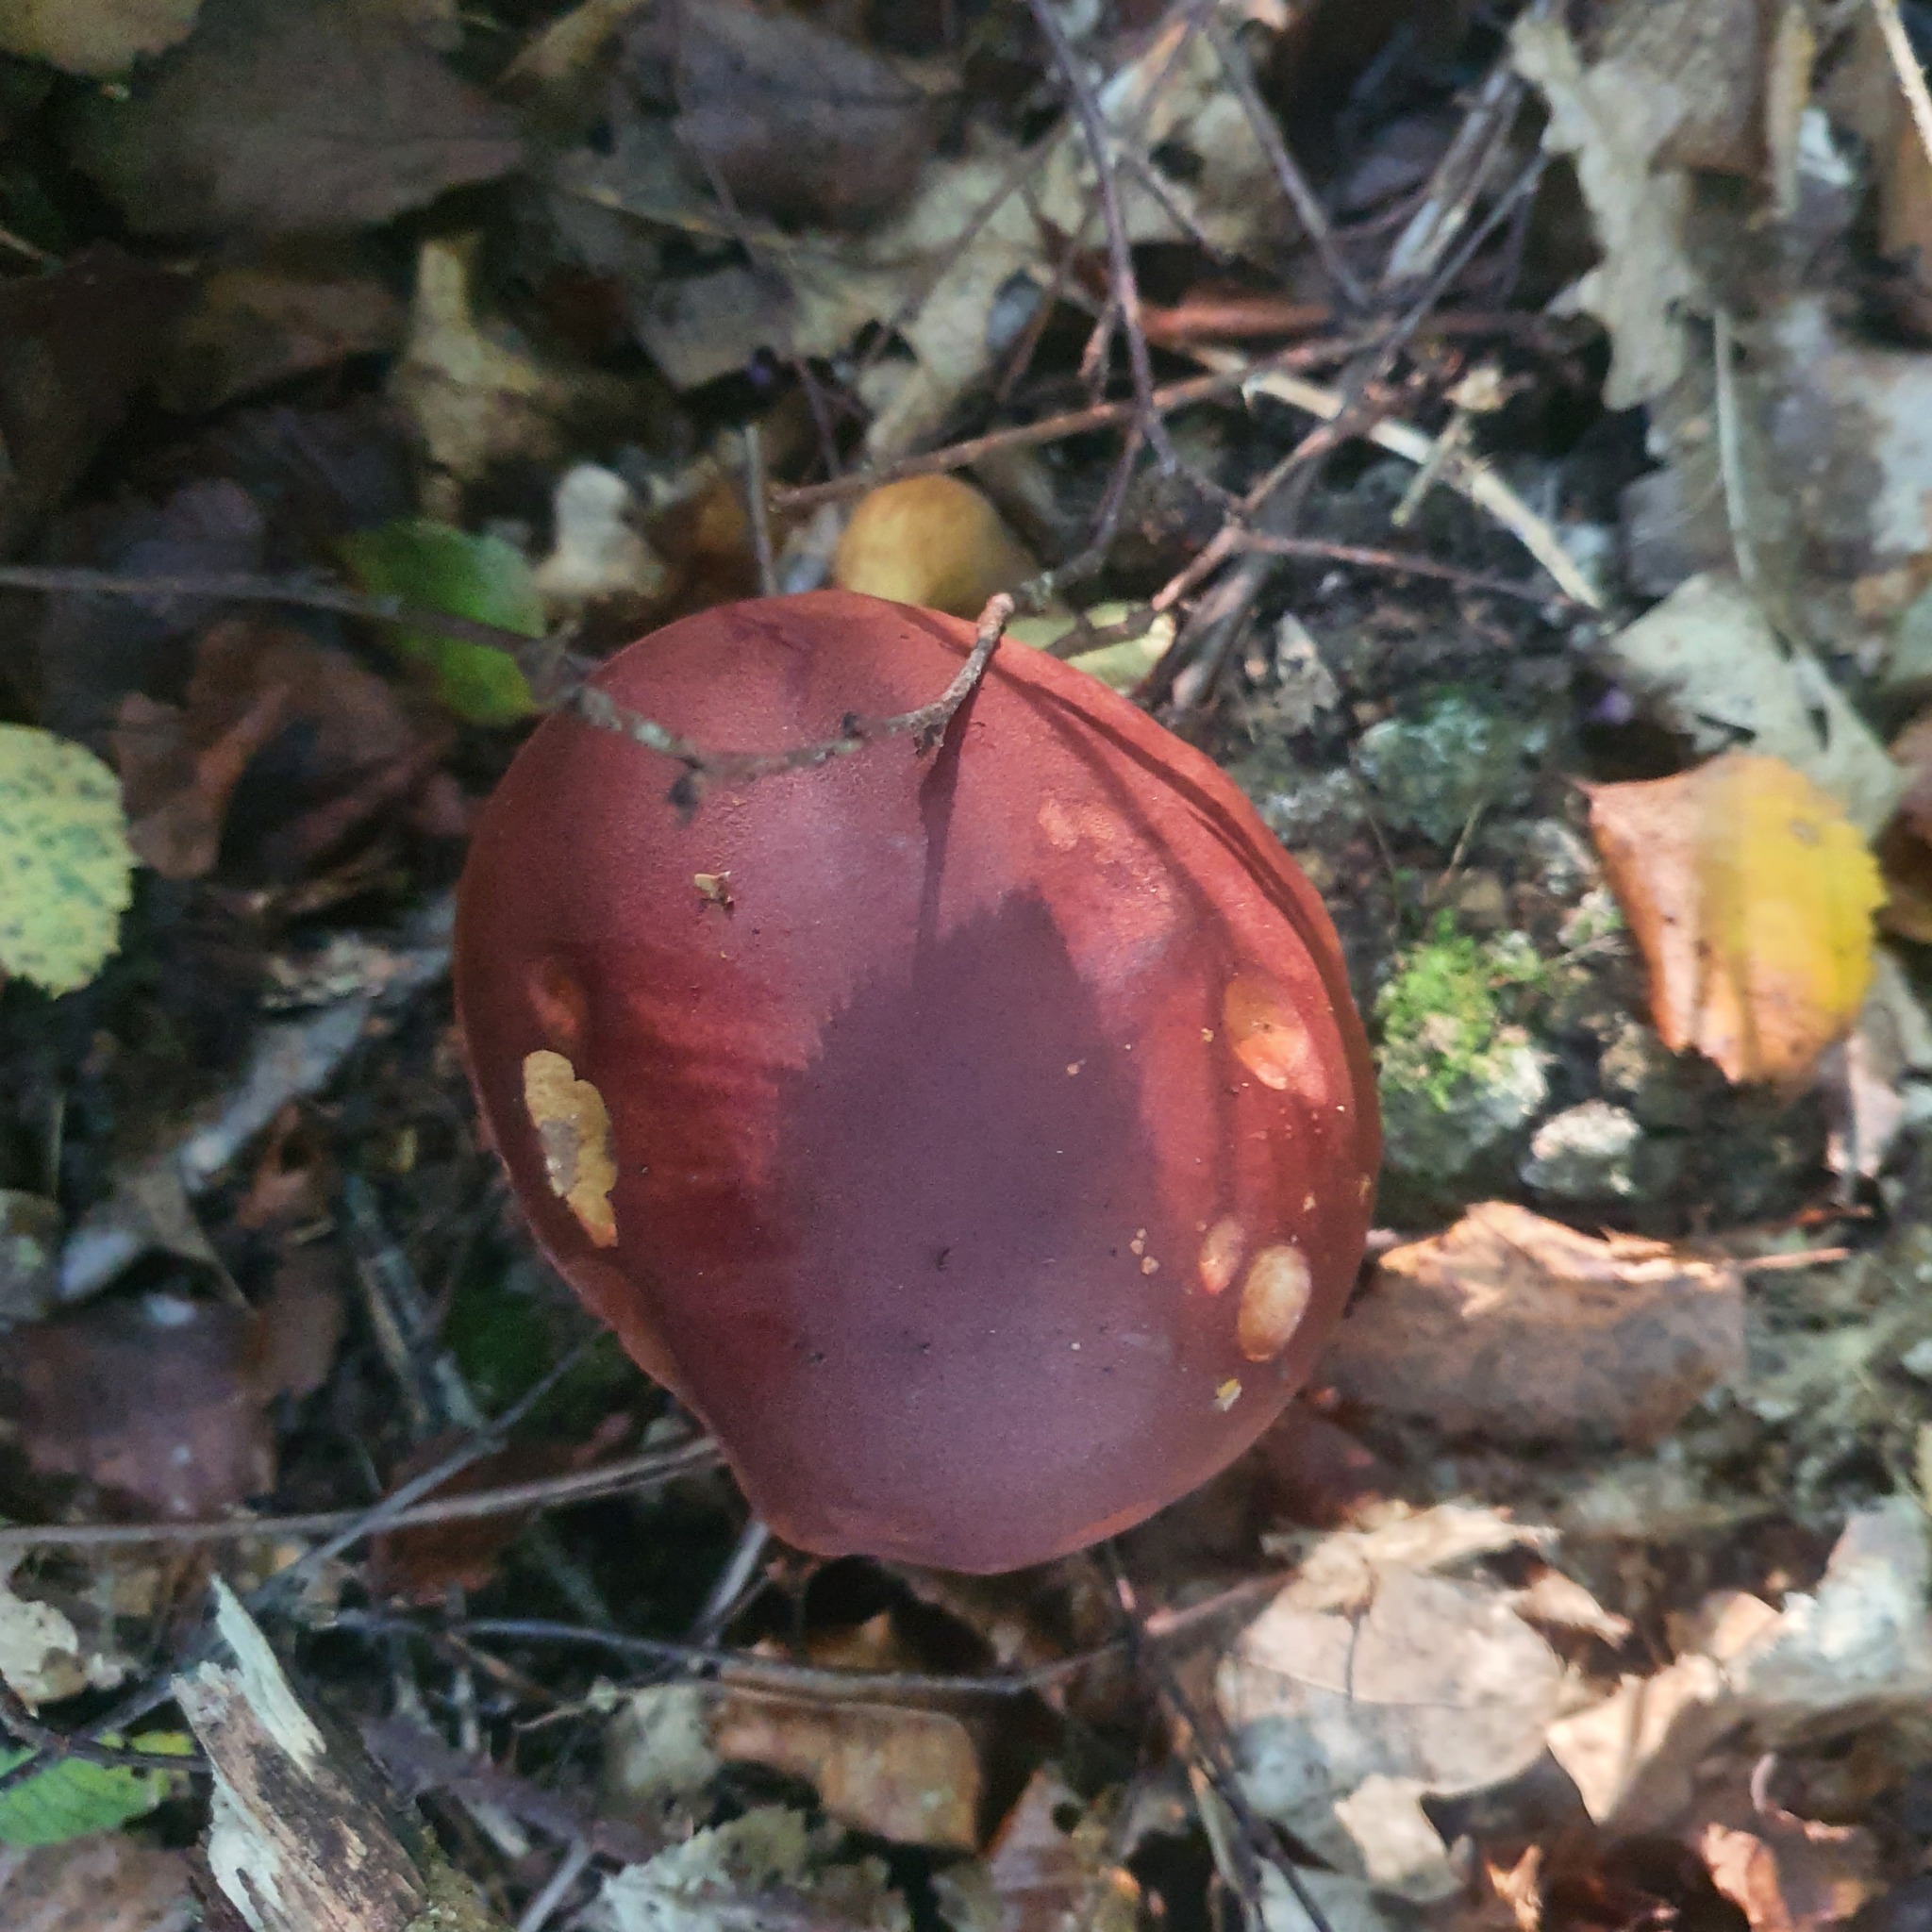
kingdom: Fungi
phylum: Basidiomycota
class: Agaricomycetes
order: Boletales
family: Boletaceae
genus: Imleria
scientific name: Imleria badia
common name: Bay bolete
